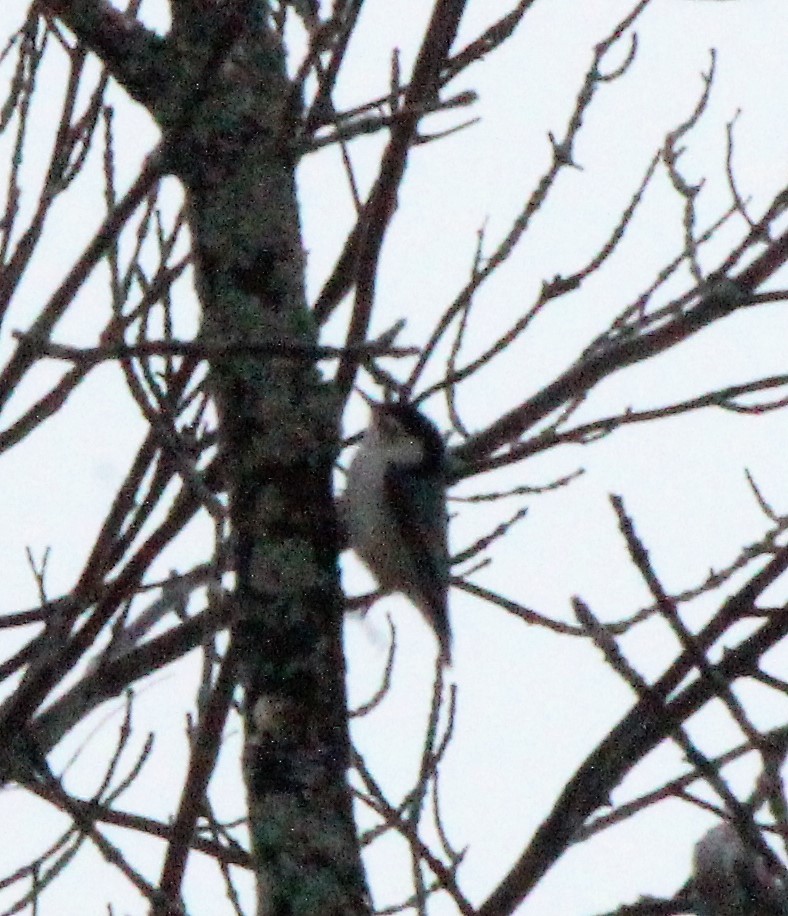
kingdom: Animalia
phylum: Chordata
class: Aves
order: Passeriformes
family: Sittidae
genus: Sitta
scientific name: Sitta carolinensis
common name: White-breasted nuthatch
